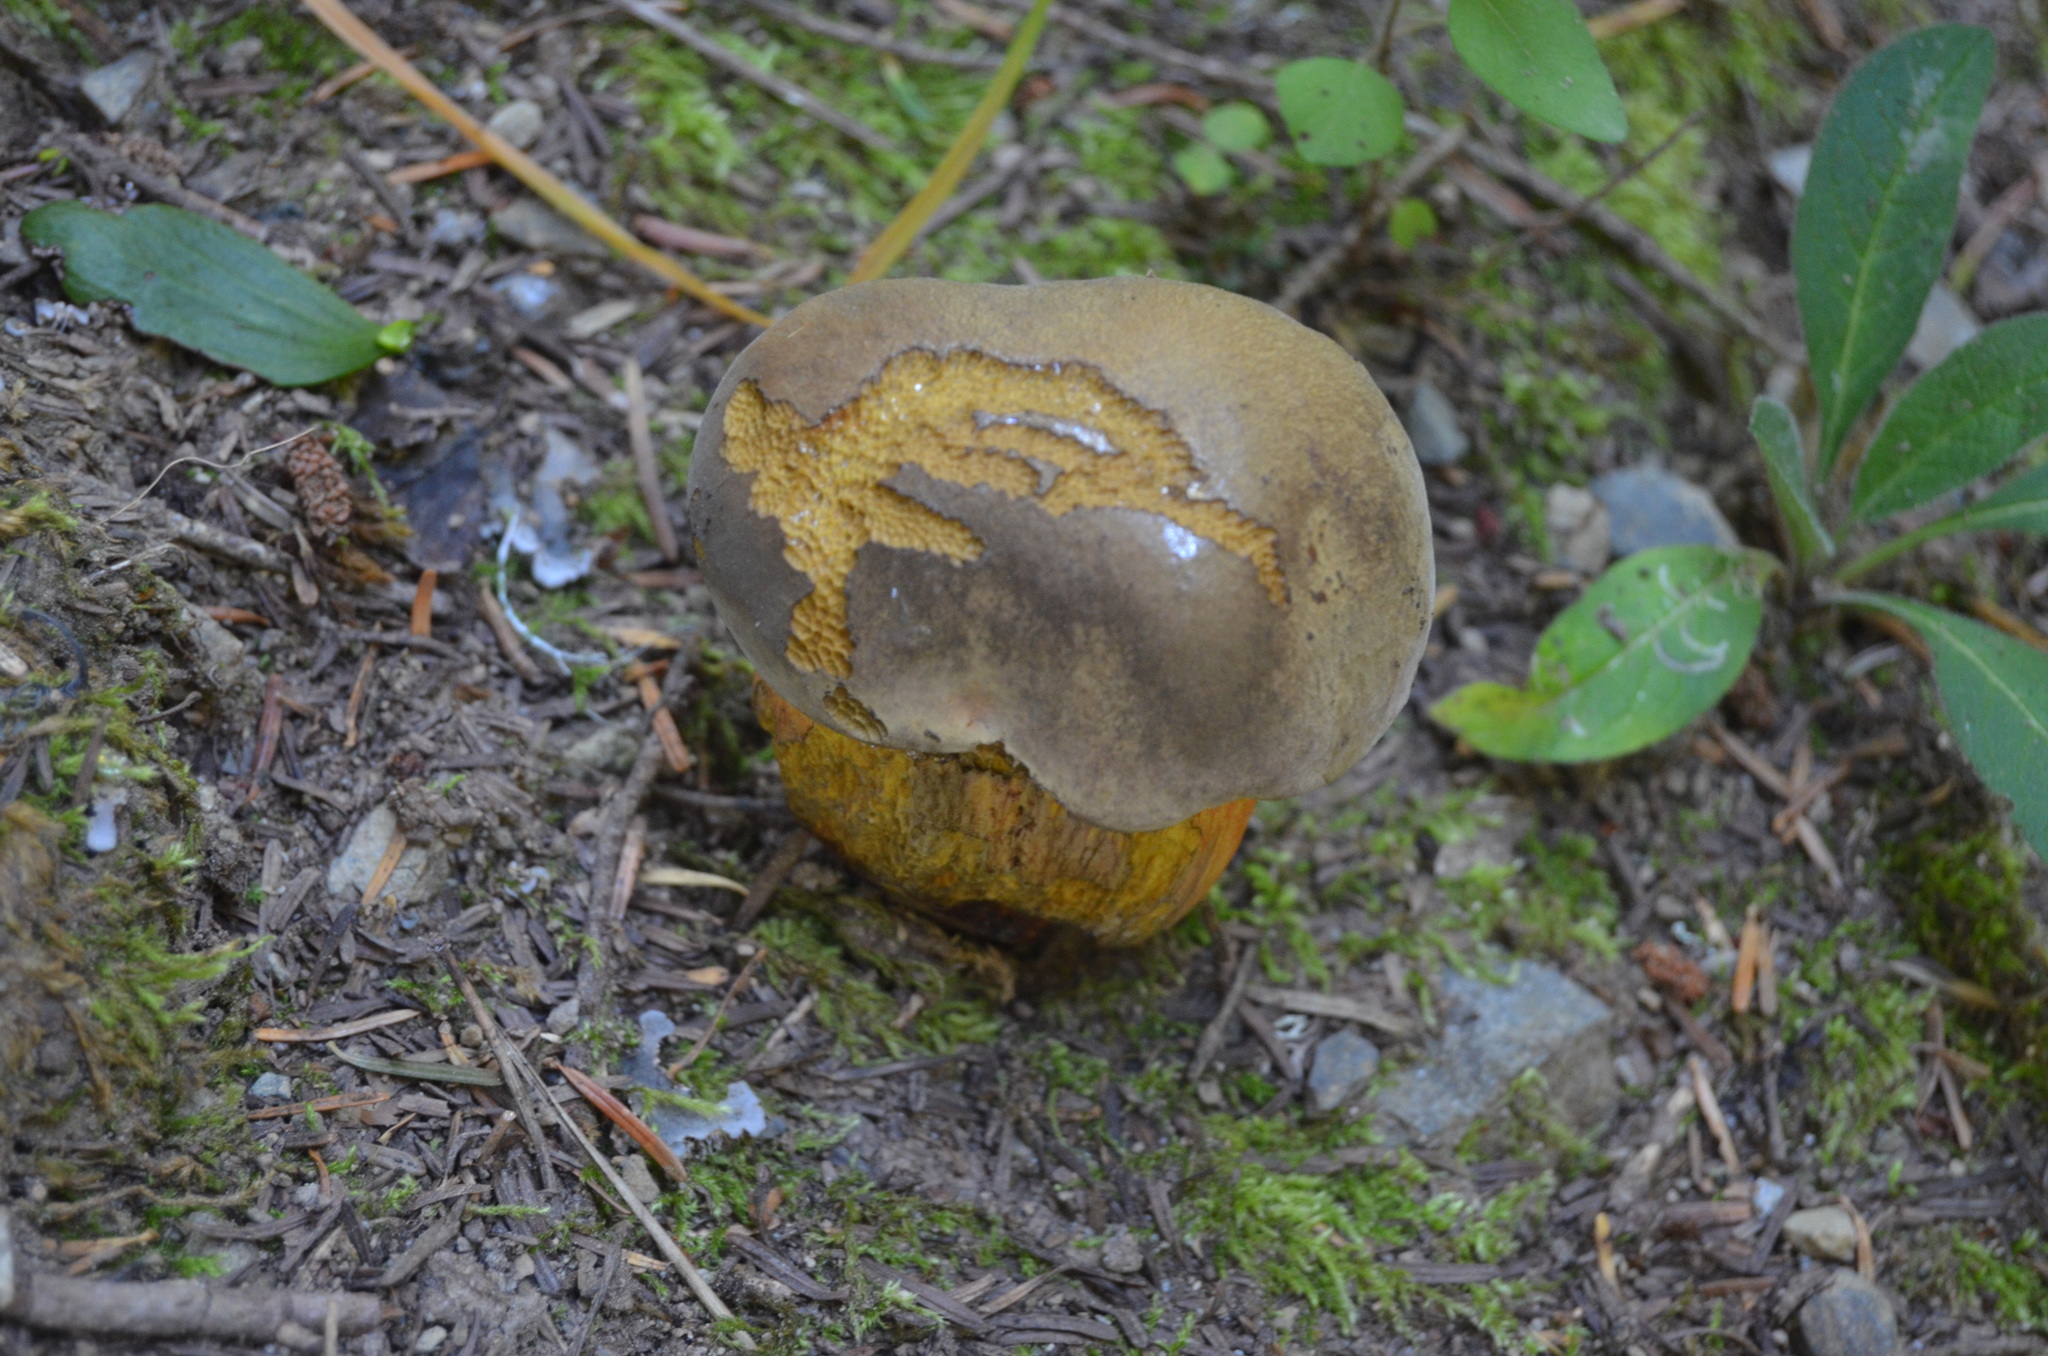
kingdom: Fungi
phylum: Basidiomycota
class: Agaricomycetes
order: Boletales
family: Boletaceae
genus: Suillellus
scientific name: Suillellus luridus
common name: Lurid bolete
